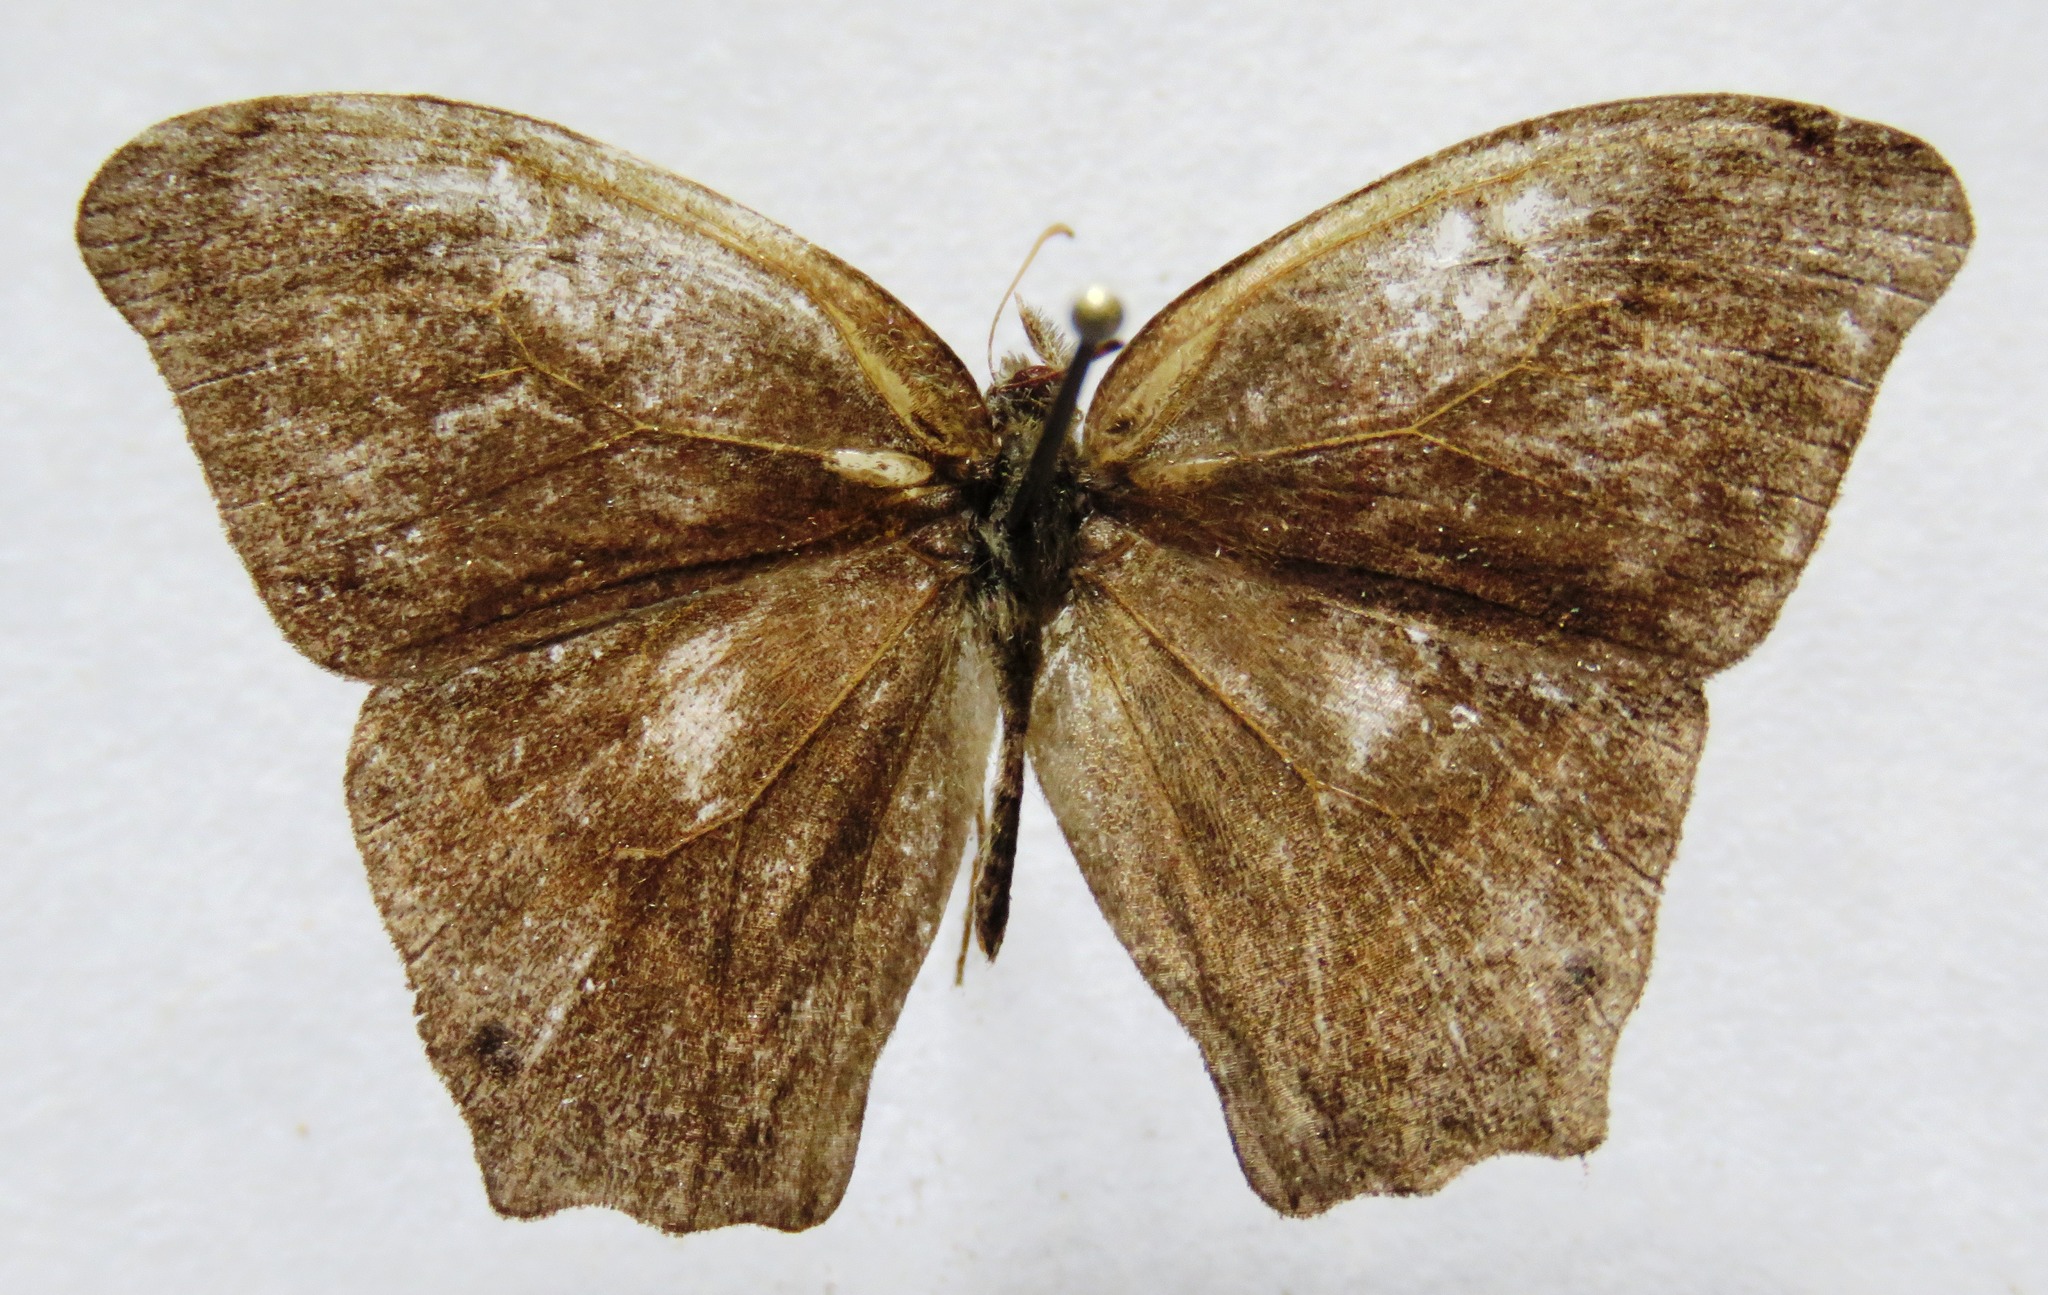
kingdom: Animalia
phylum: Arthropoda
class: Insecta
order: Lepidoptera
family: Nymphalidae
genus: Euptychia
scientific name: Euptychia Cyllopsis hedemanni
